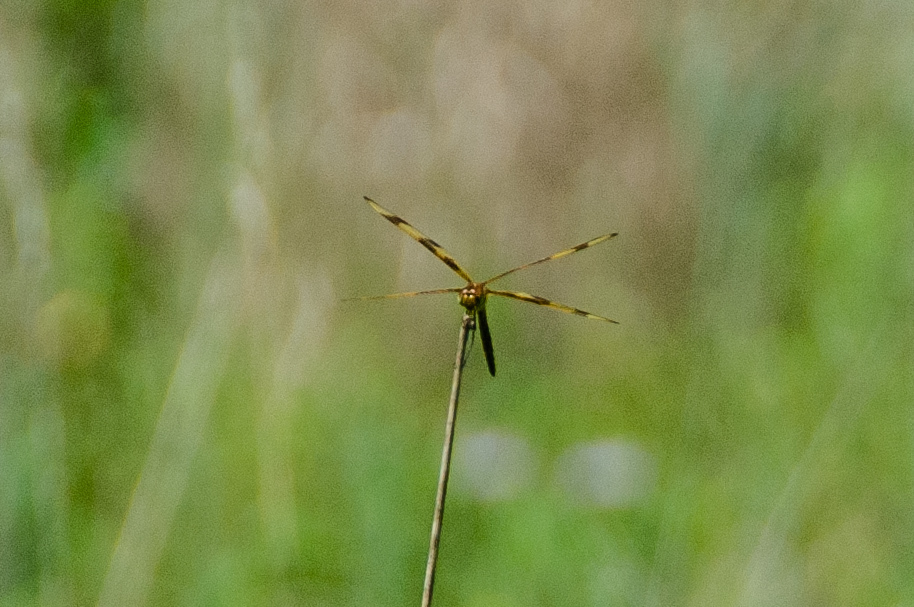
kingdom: Animalia
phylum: Arthropoda
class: Insecta
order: Odonata
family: Libellulidae
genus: Celithemis
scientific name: Celithemis eponina
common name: Halloween pennant
